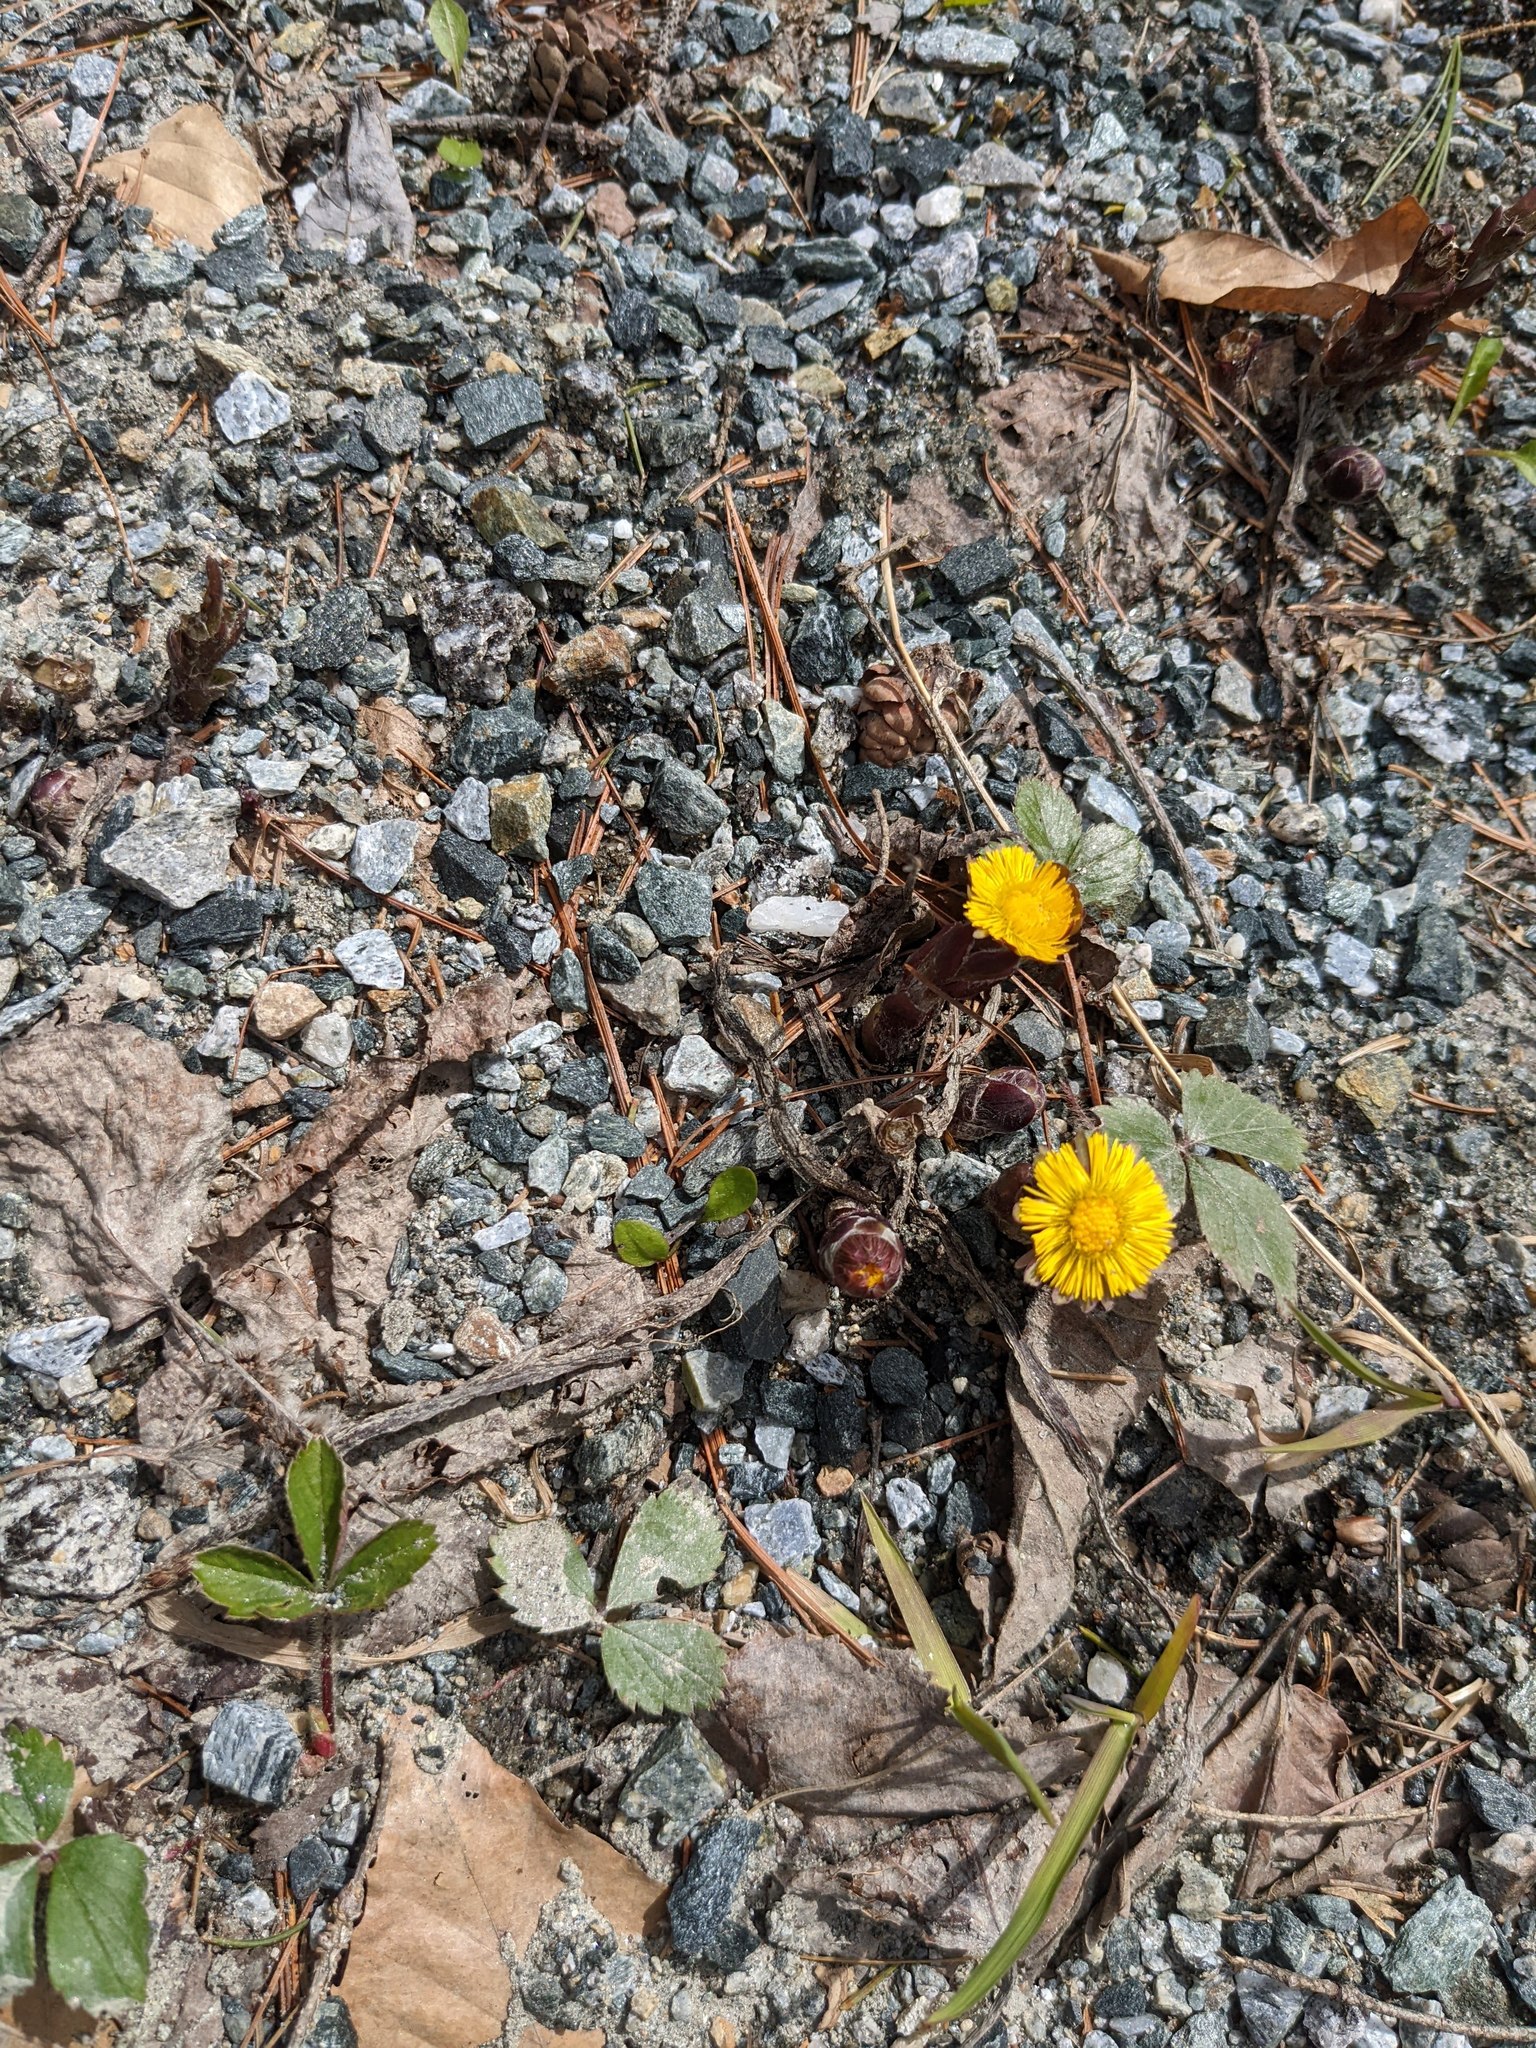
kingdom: Plantae
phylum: Tracheophyta
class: Magnoliopsida
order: Asterales
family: Asteraceae
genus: Tussilago
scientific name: Tussilago farfara
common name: Coltsfoot
